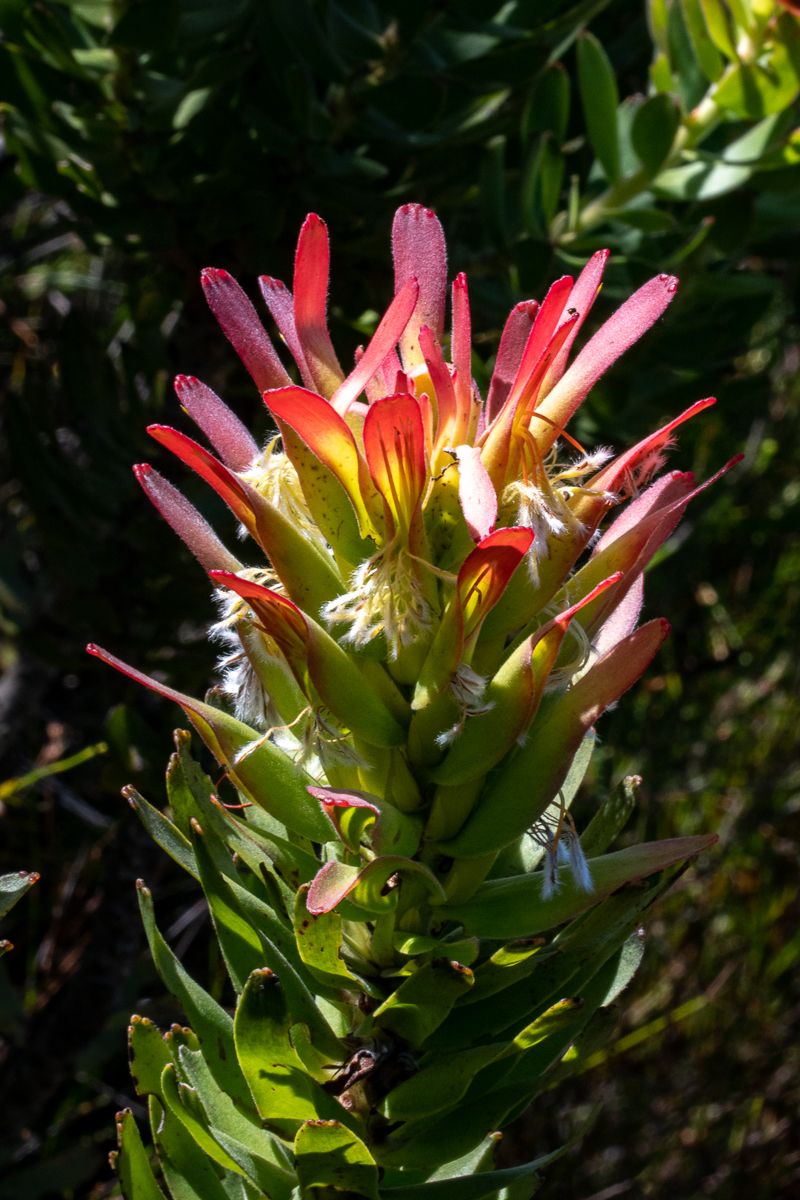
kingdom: Plantae
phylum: Tracheophyta
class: Magnoliopsida
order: Proteales
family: Proteaceae
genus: Mimetes
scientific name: Mimetes cucullatus
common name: Common pagoda
